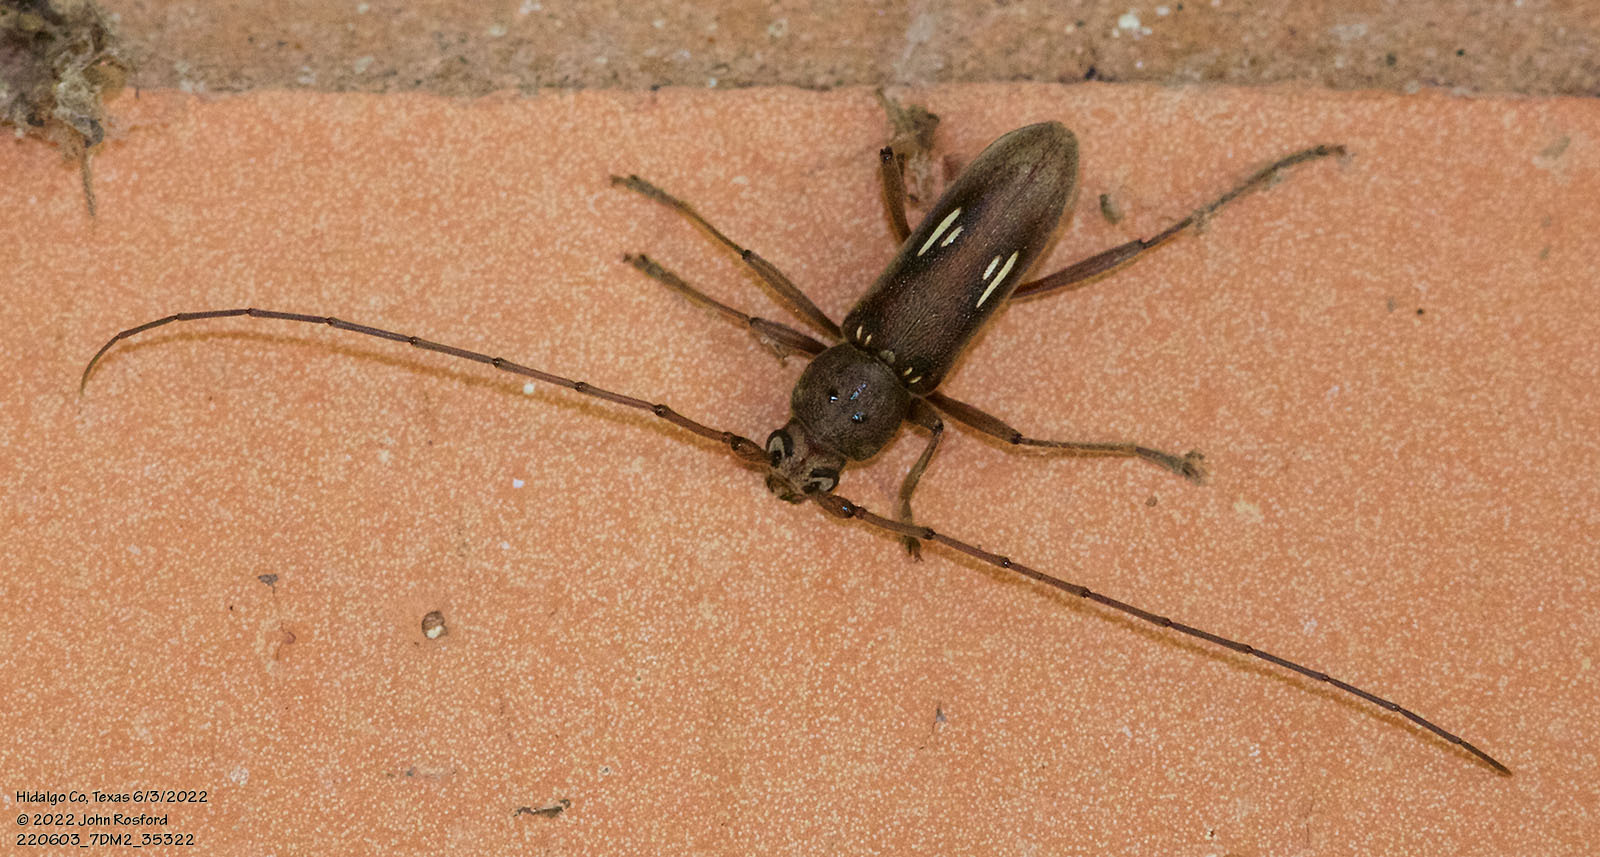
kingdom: Animalia
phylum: Arthropoda
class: Insecta
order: Coleoptera
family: Cerambycidae
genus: Eburia
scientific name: Eburia ovicollis
